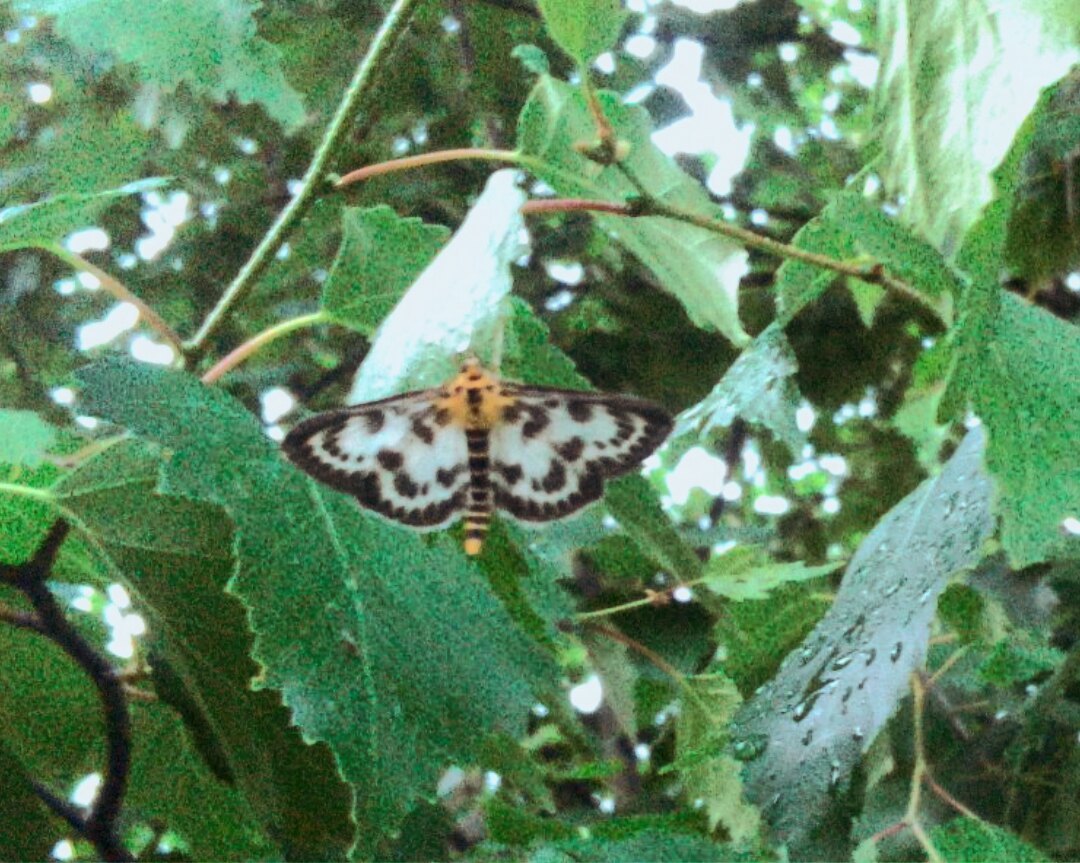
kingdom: Animalia
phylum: Arthropoda
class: Insecta
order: Lepidoptera
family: Crambidae
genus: Anania
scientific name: Anania hortulata
